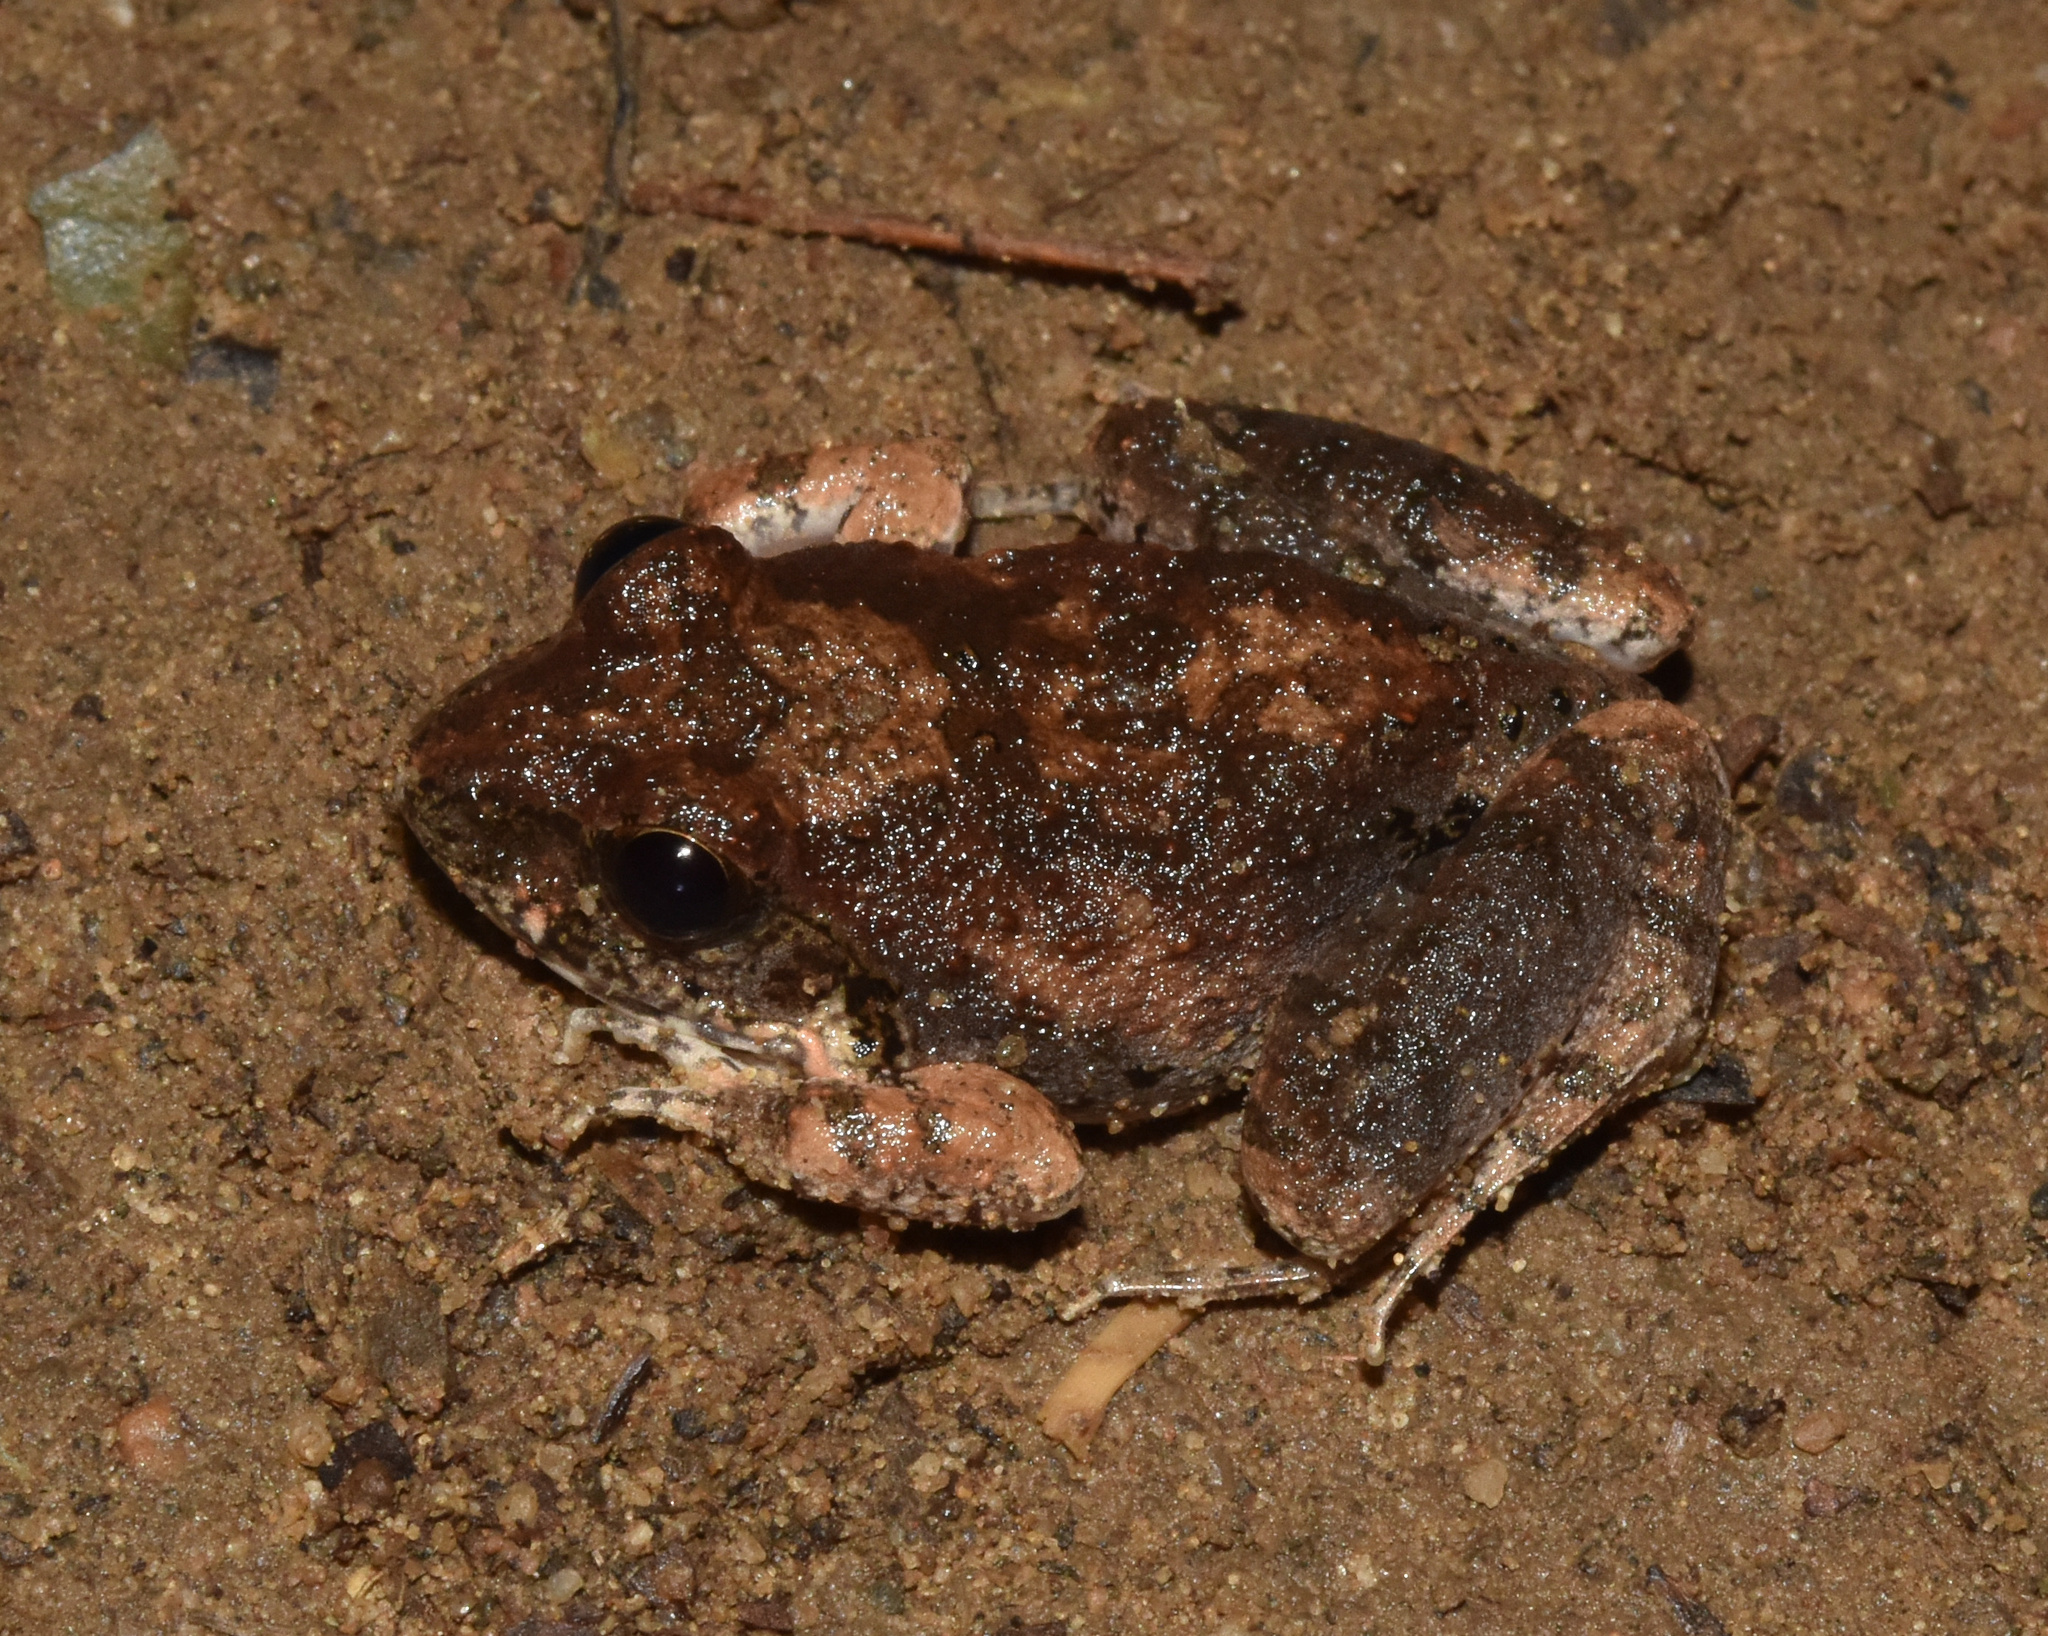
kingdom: Animalia
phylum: Chordata
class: Amphibia
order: Anura
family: Pyxicephalidae
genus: Tomopterna
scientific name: Tomopterna natalensis
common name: Natal sand frog
